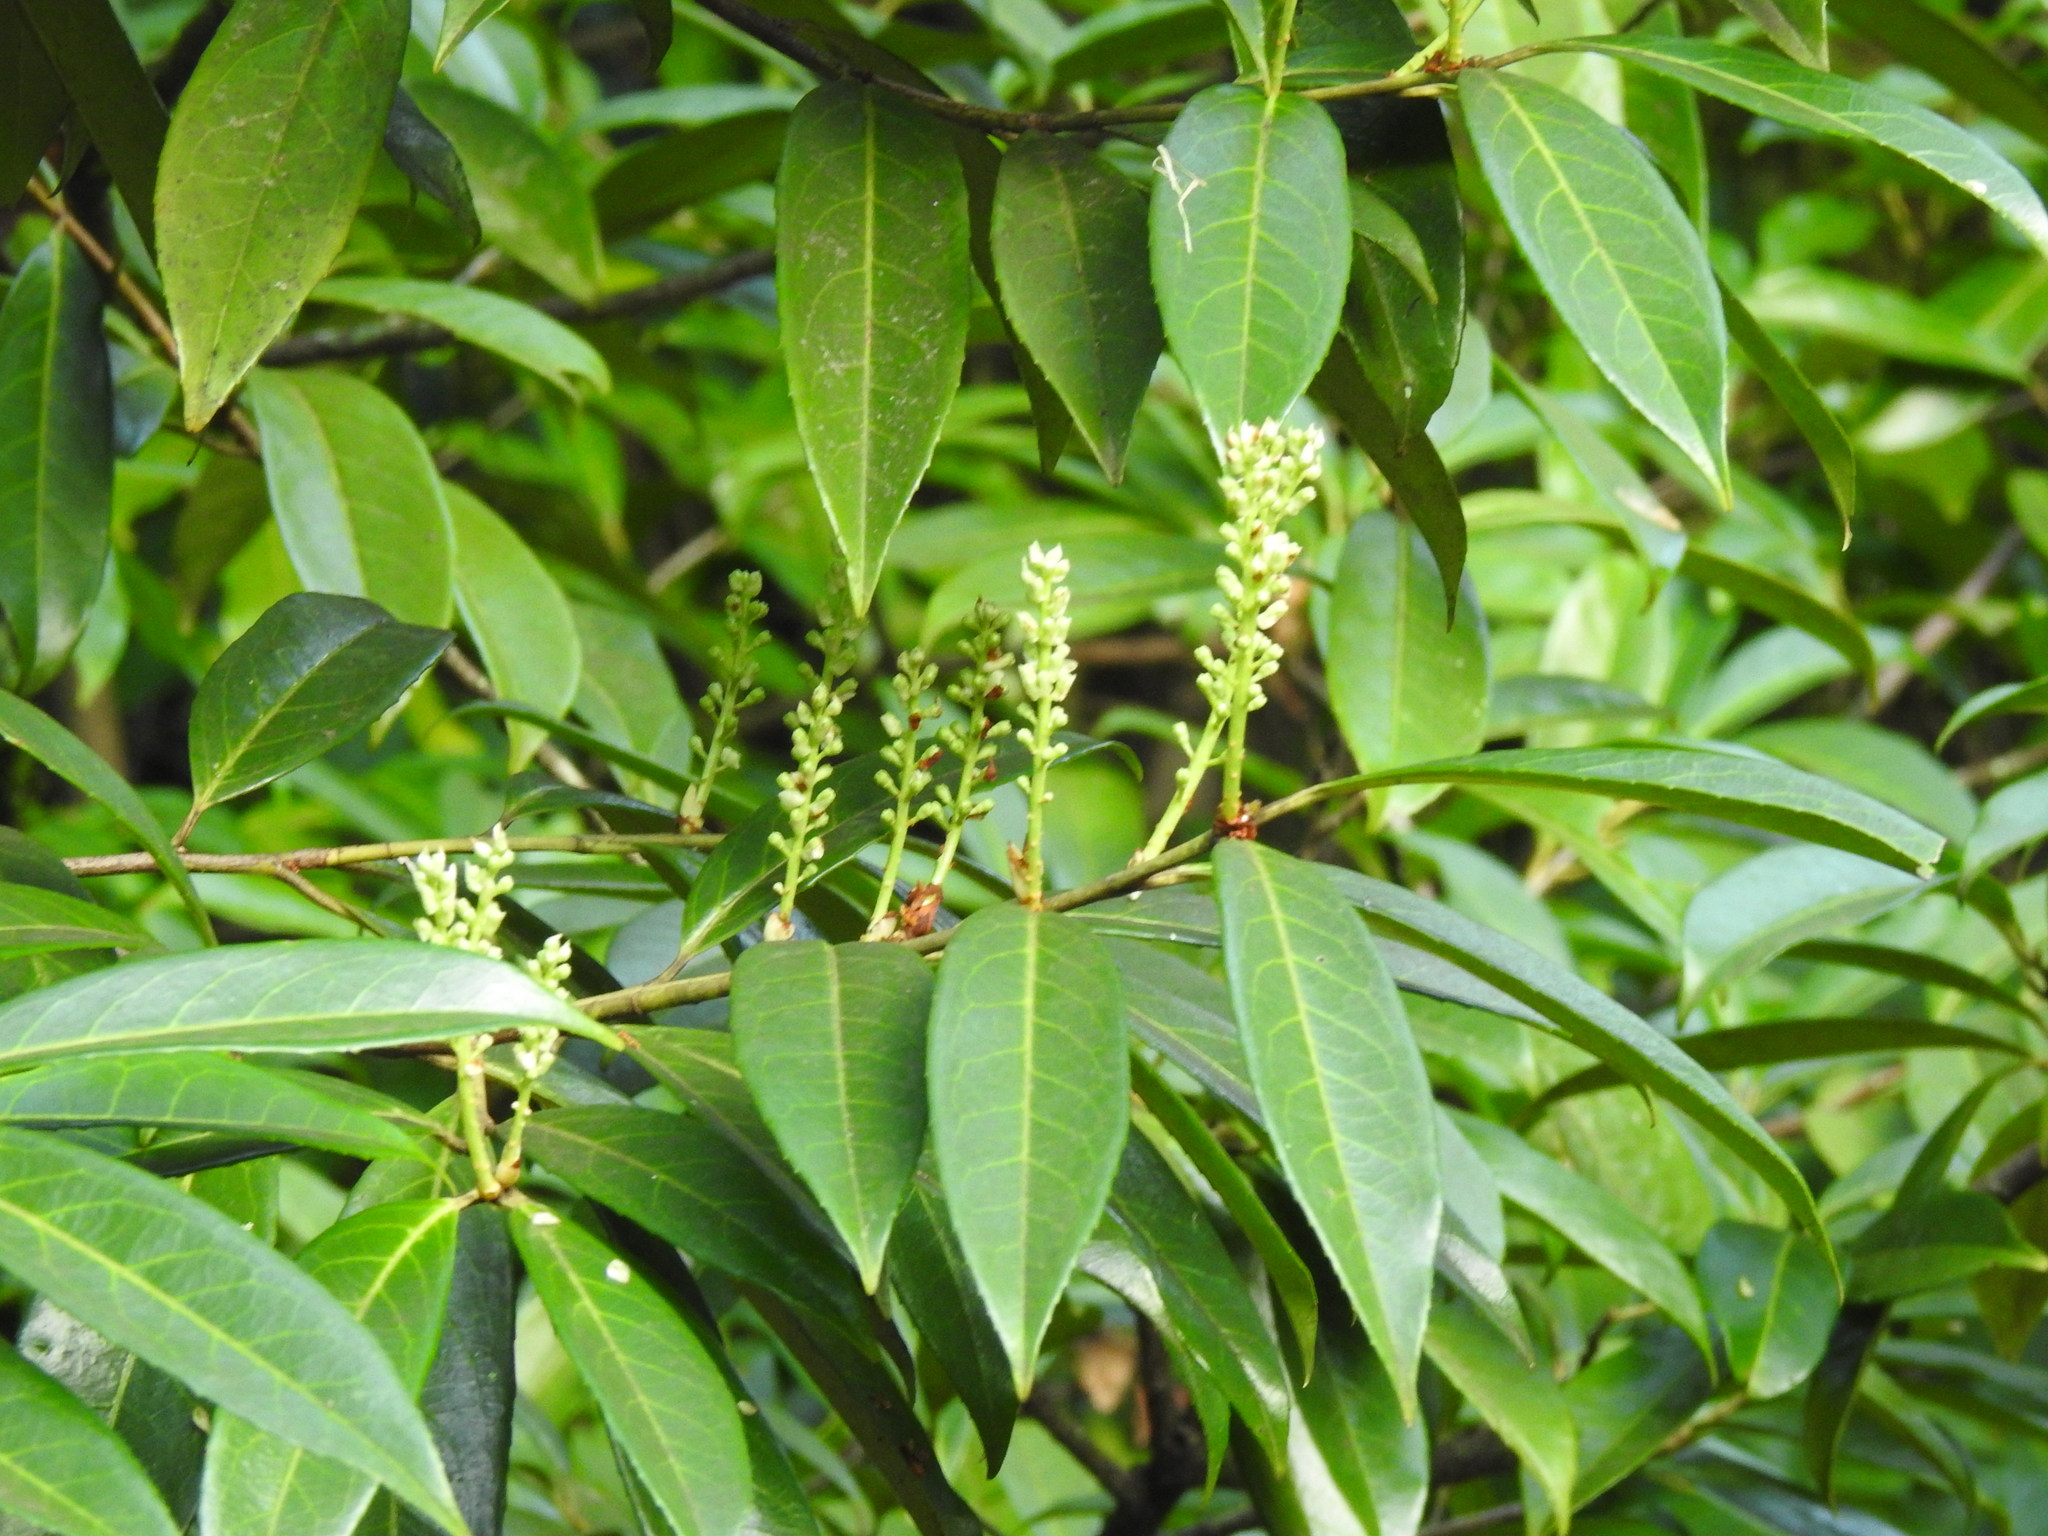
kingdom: Plantae
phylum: Tracheophyta
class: Magnoliopsida
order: Rosales
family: Rosaceae
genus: Prunus
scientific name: Prunus laurocerasus
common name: Cherry laurel
